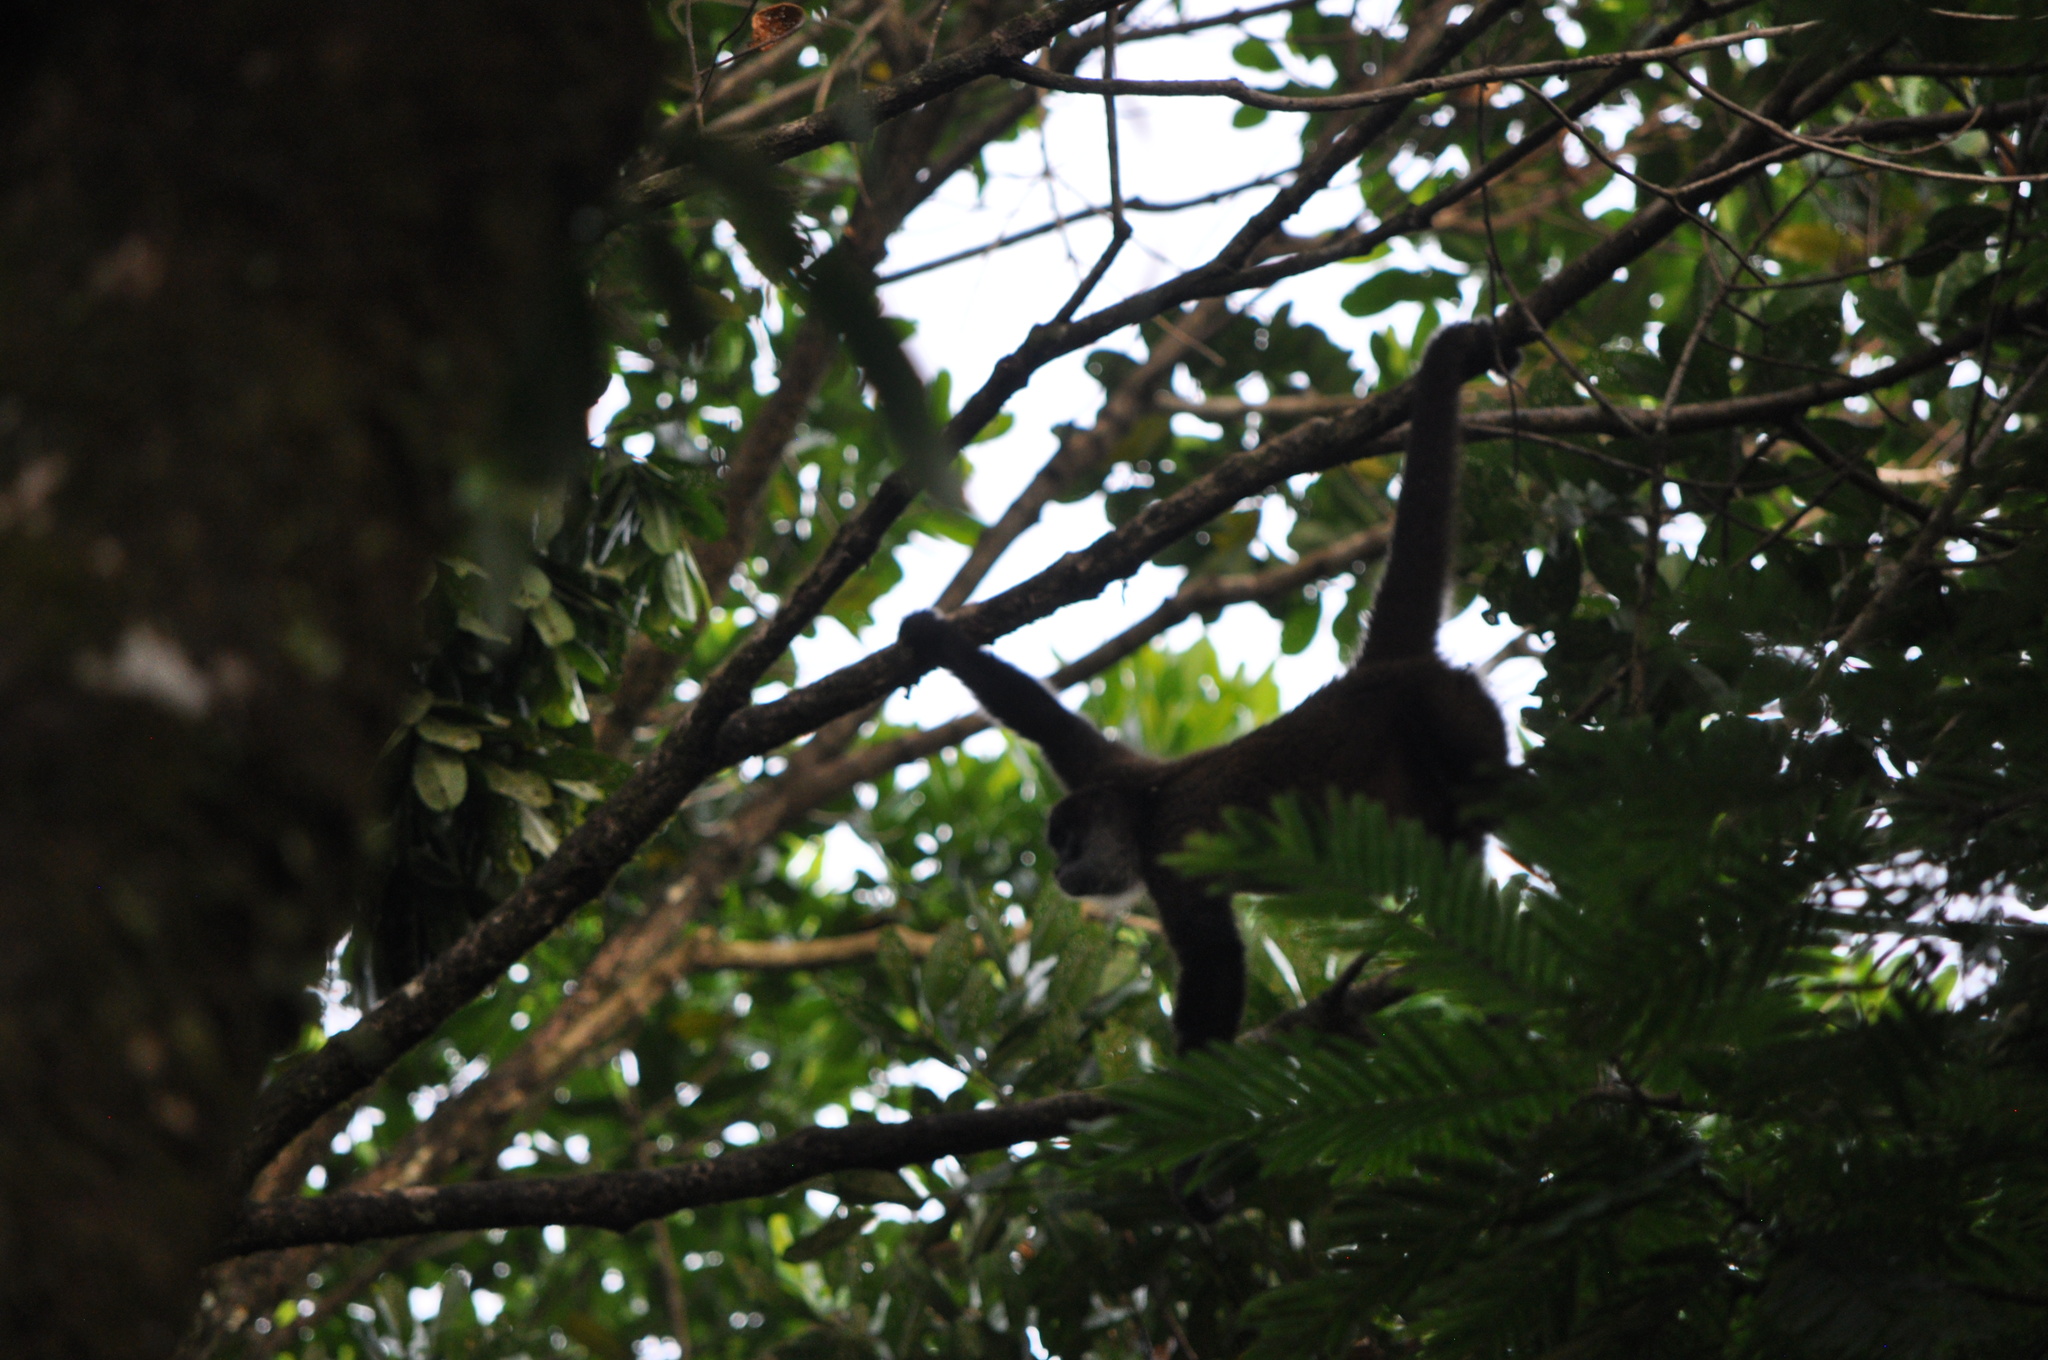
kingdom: Animalia
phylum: Chordata
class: Mammalia
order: Primates
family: Atelidae
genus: Ateles
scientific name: Ateles geoffroyi
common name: Black-handed spider monkey
